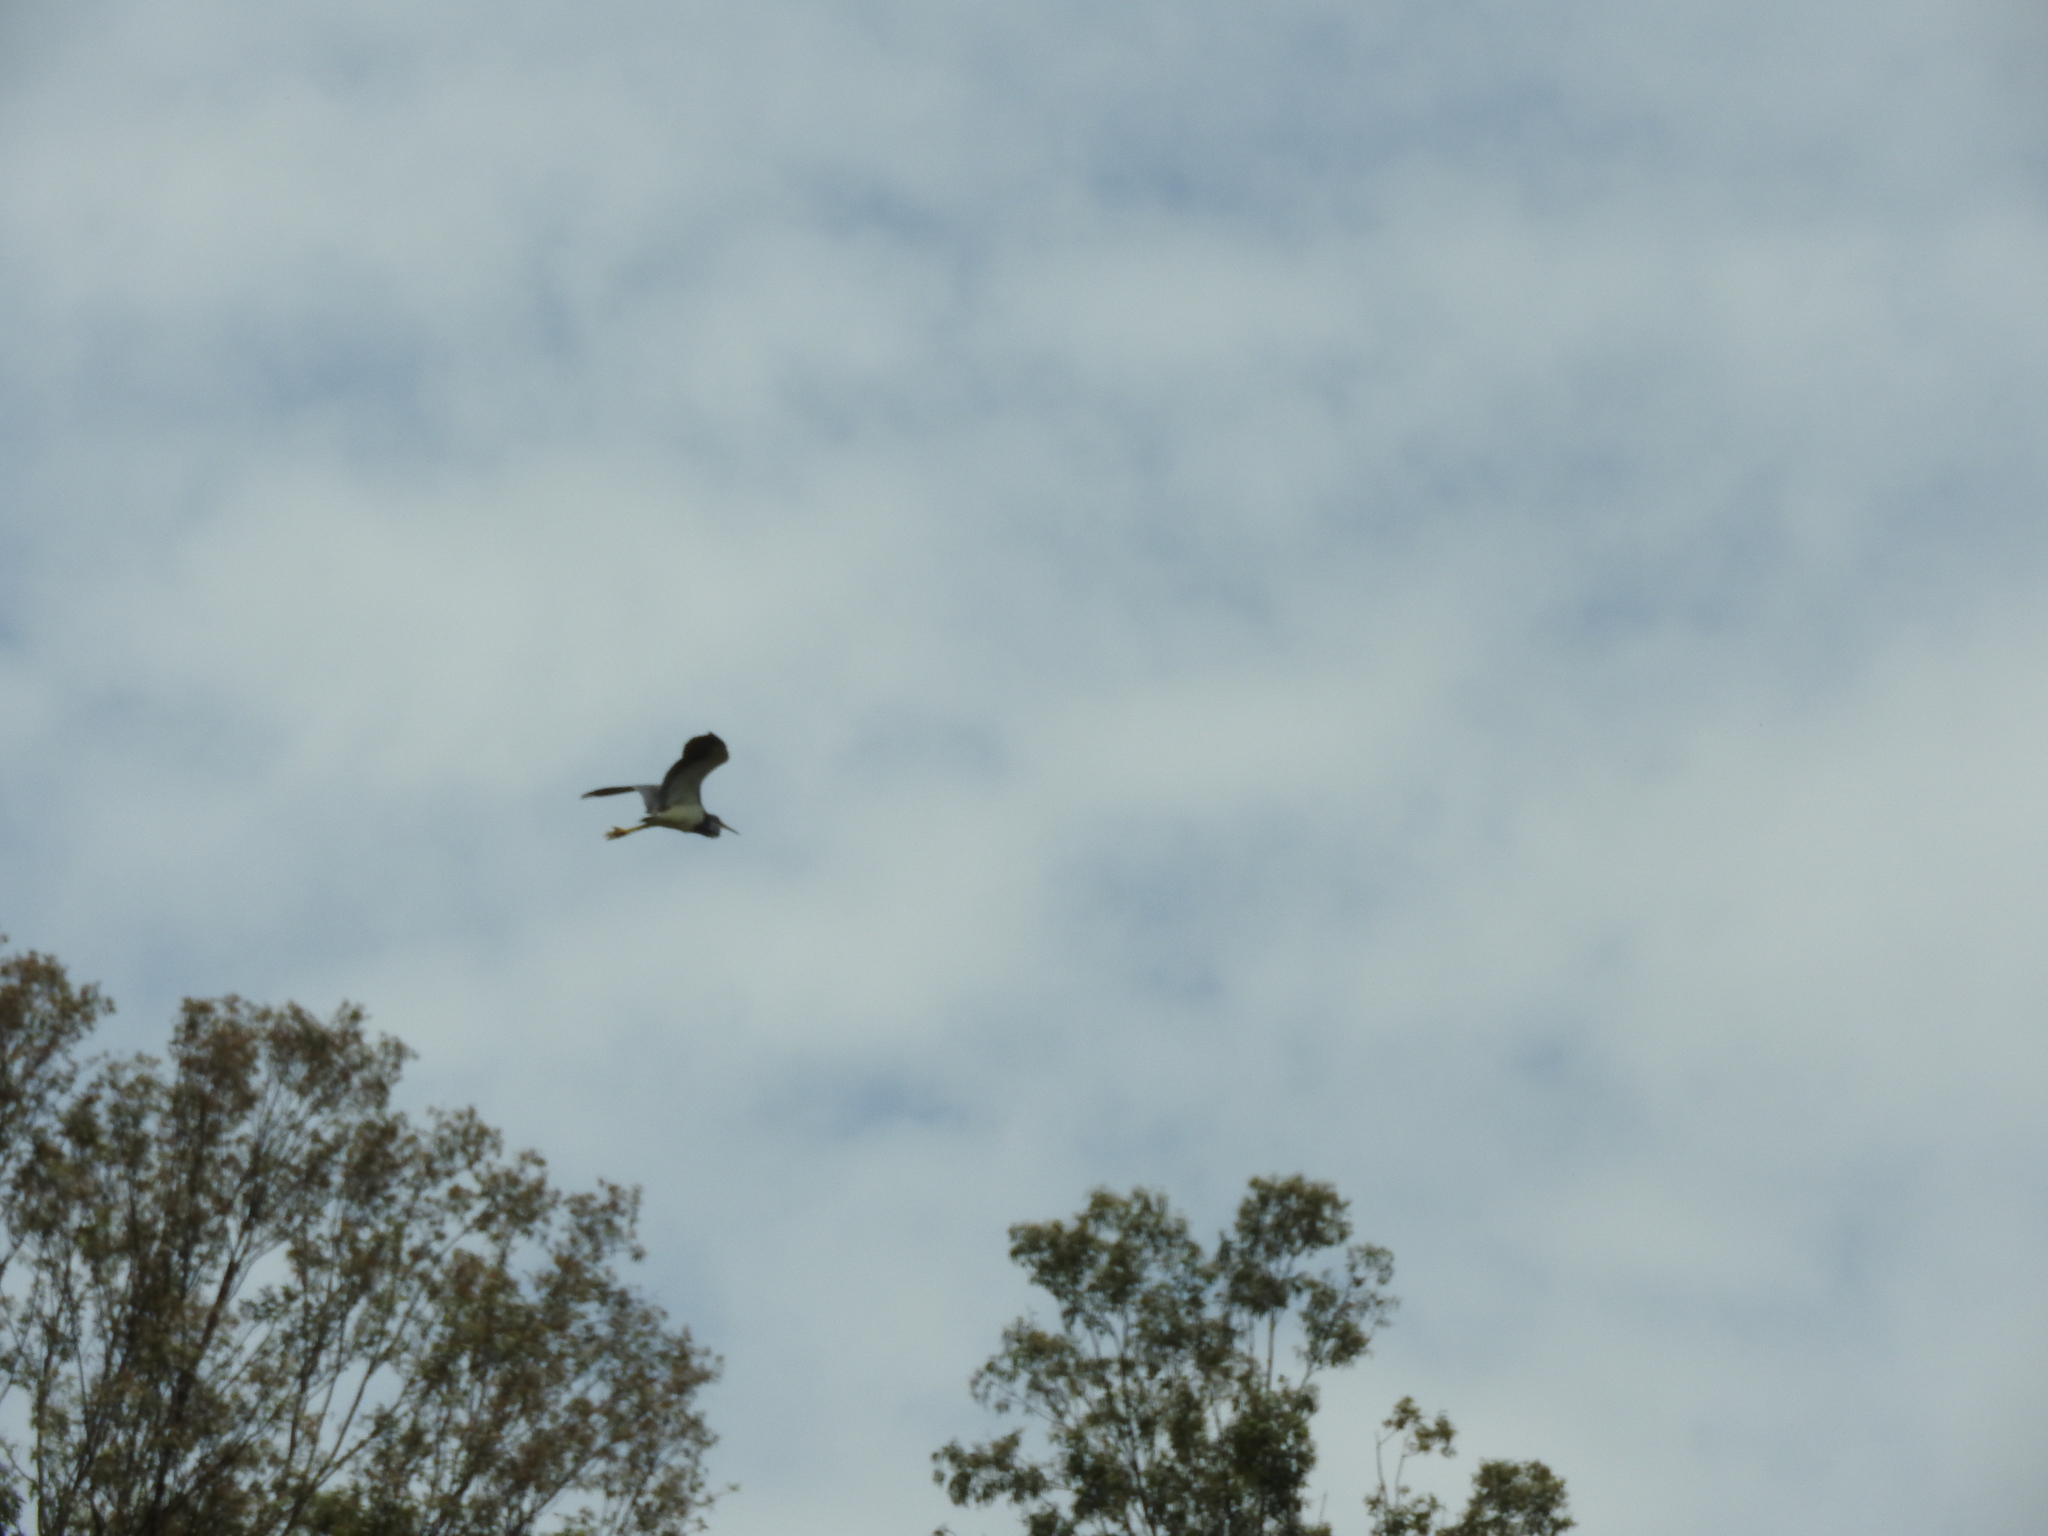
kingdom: Animalia
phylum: Chordata
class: Aves
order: Pelecaniformes
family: Ardeidae
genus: Egretta
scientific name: Egretta tricolor
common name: Tricolored heron
